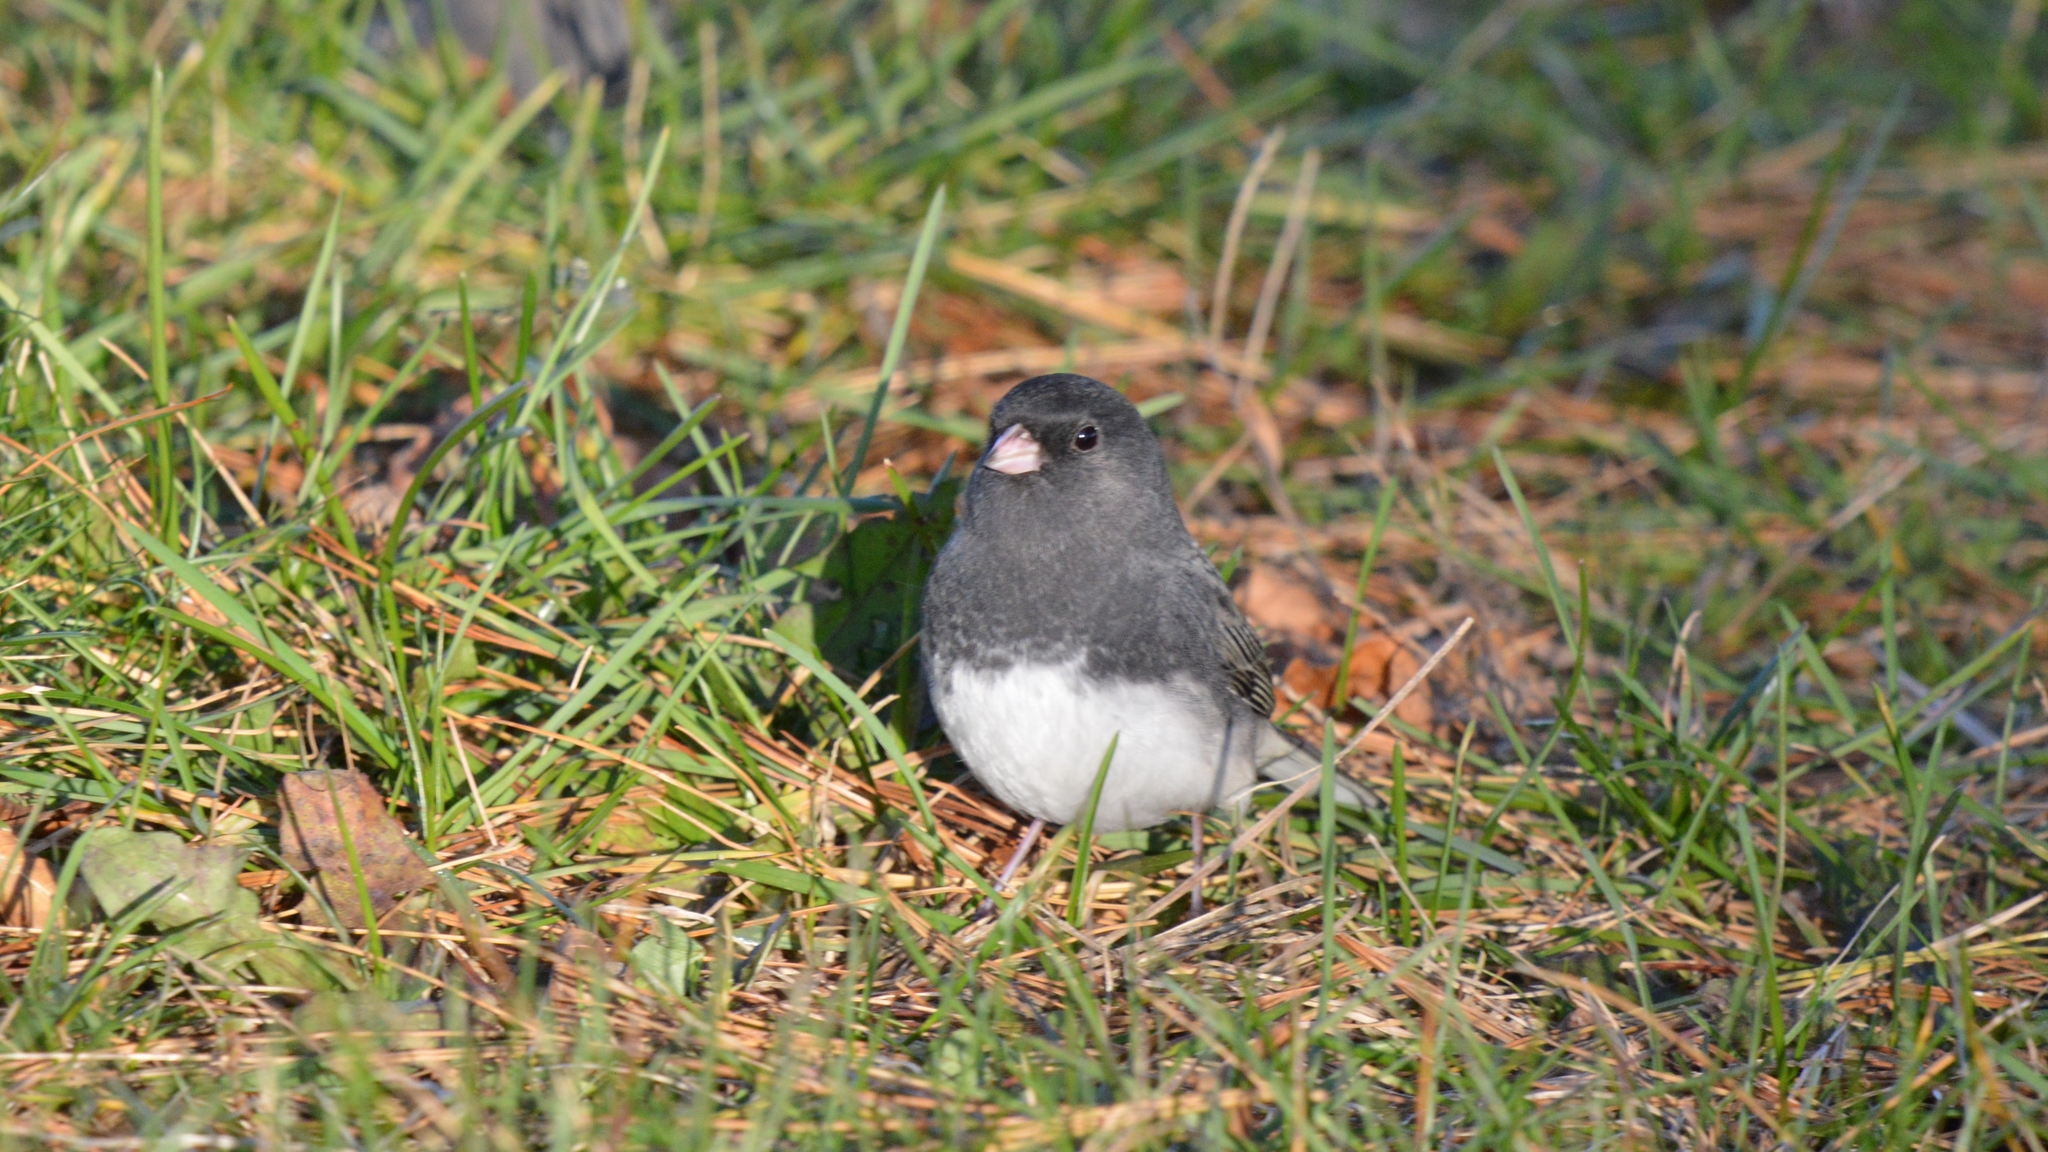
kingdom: Animalia
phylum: Chordata
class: Aves
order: Passeriformes
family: Passerellidae
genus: Junco
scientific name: Junco hyemalis
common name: Dark-eyed junco
